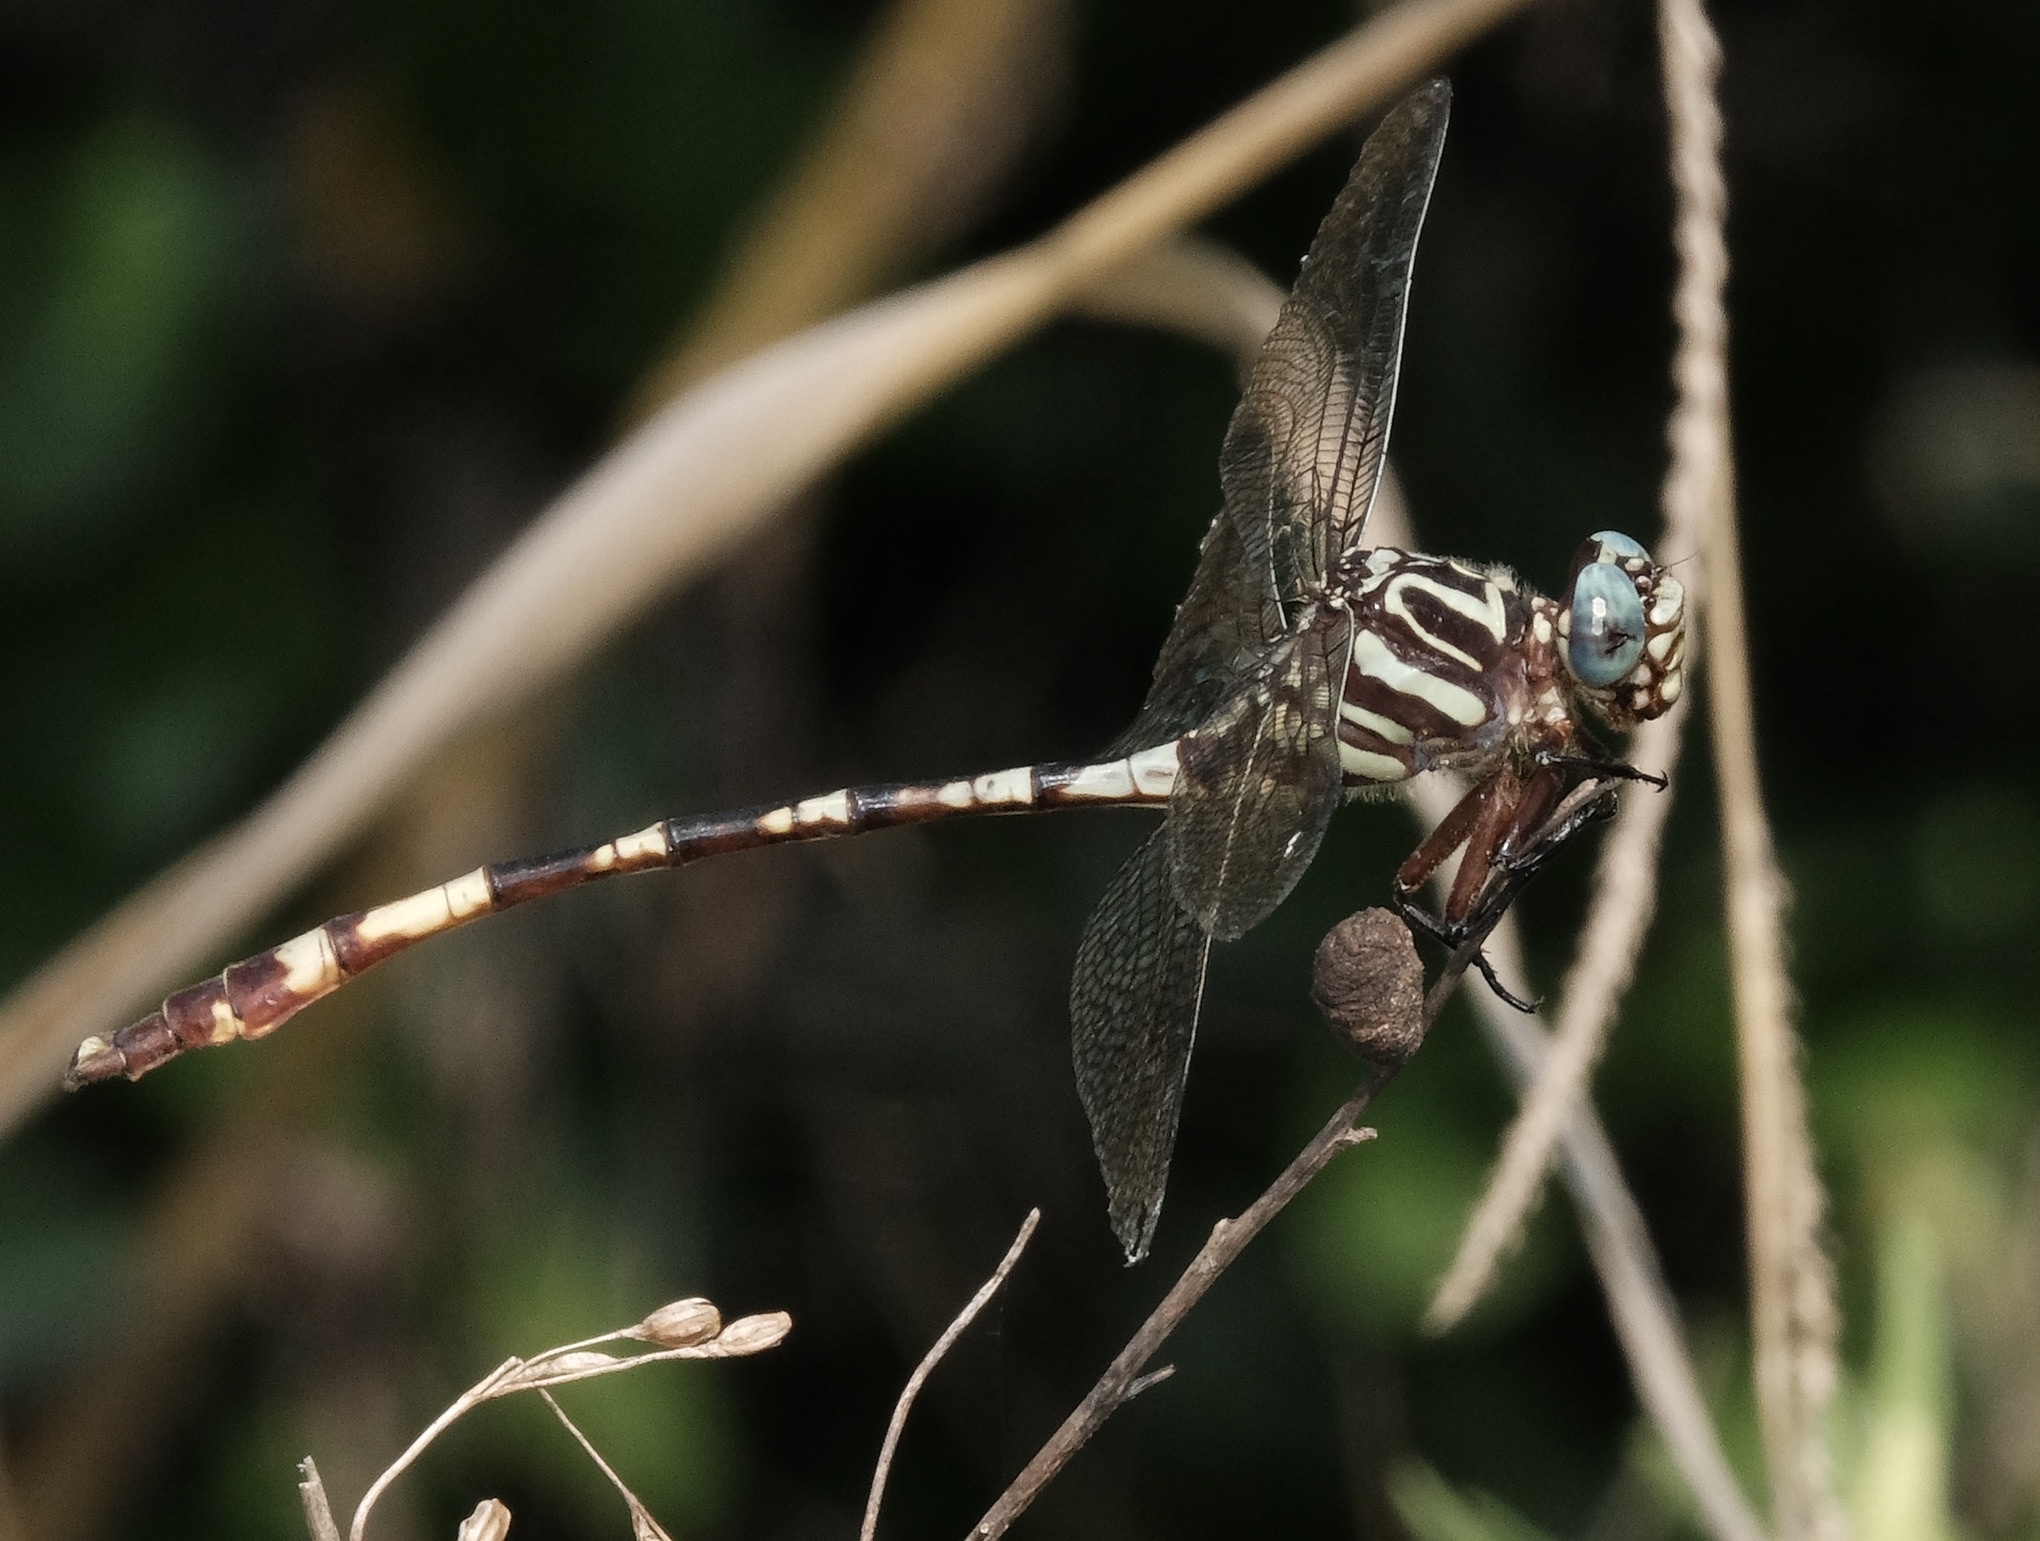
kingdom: Animalia
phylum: Arthropoda
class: Insecta
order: Odonata
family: Gomphidae
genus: Aphylla
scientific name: Aphylla angustifolia
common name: Broad-striped forceptail
